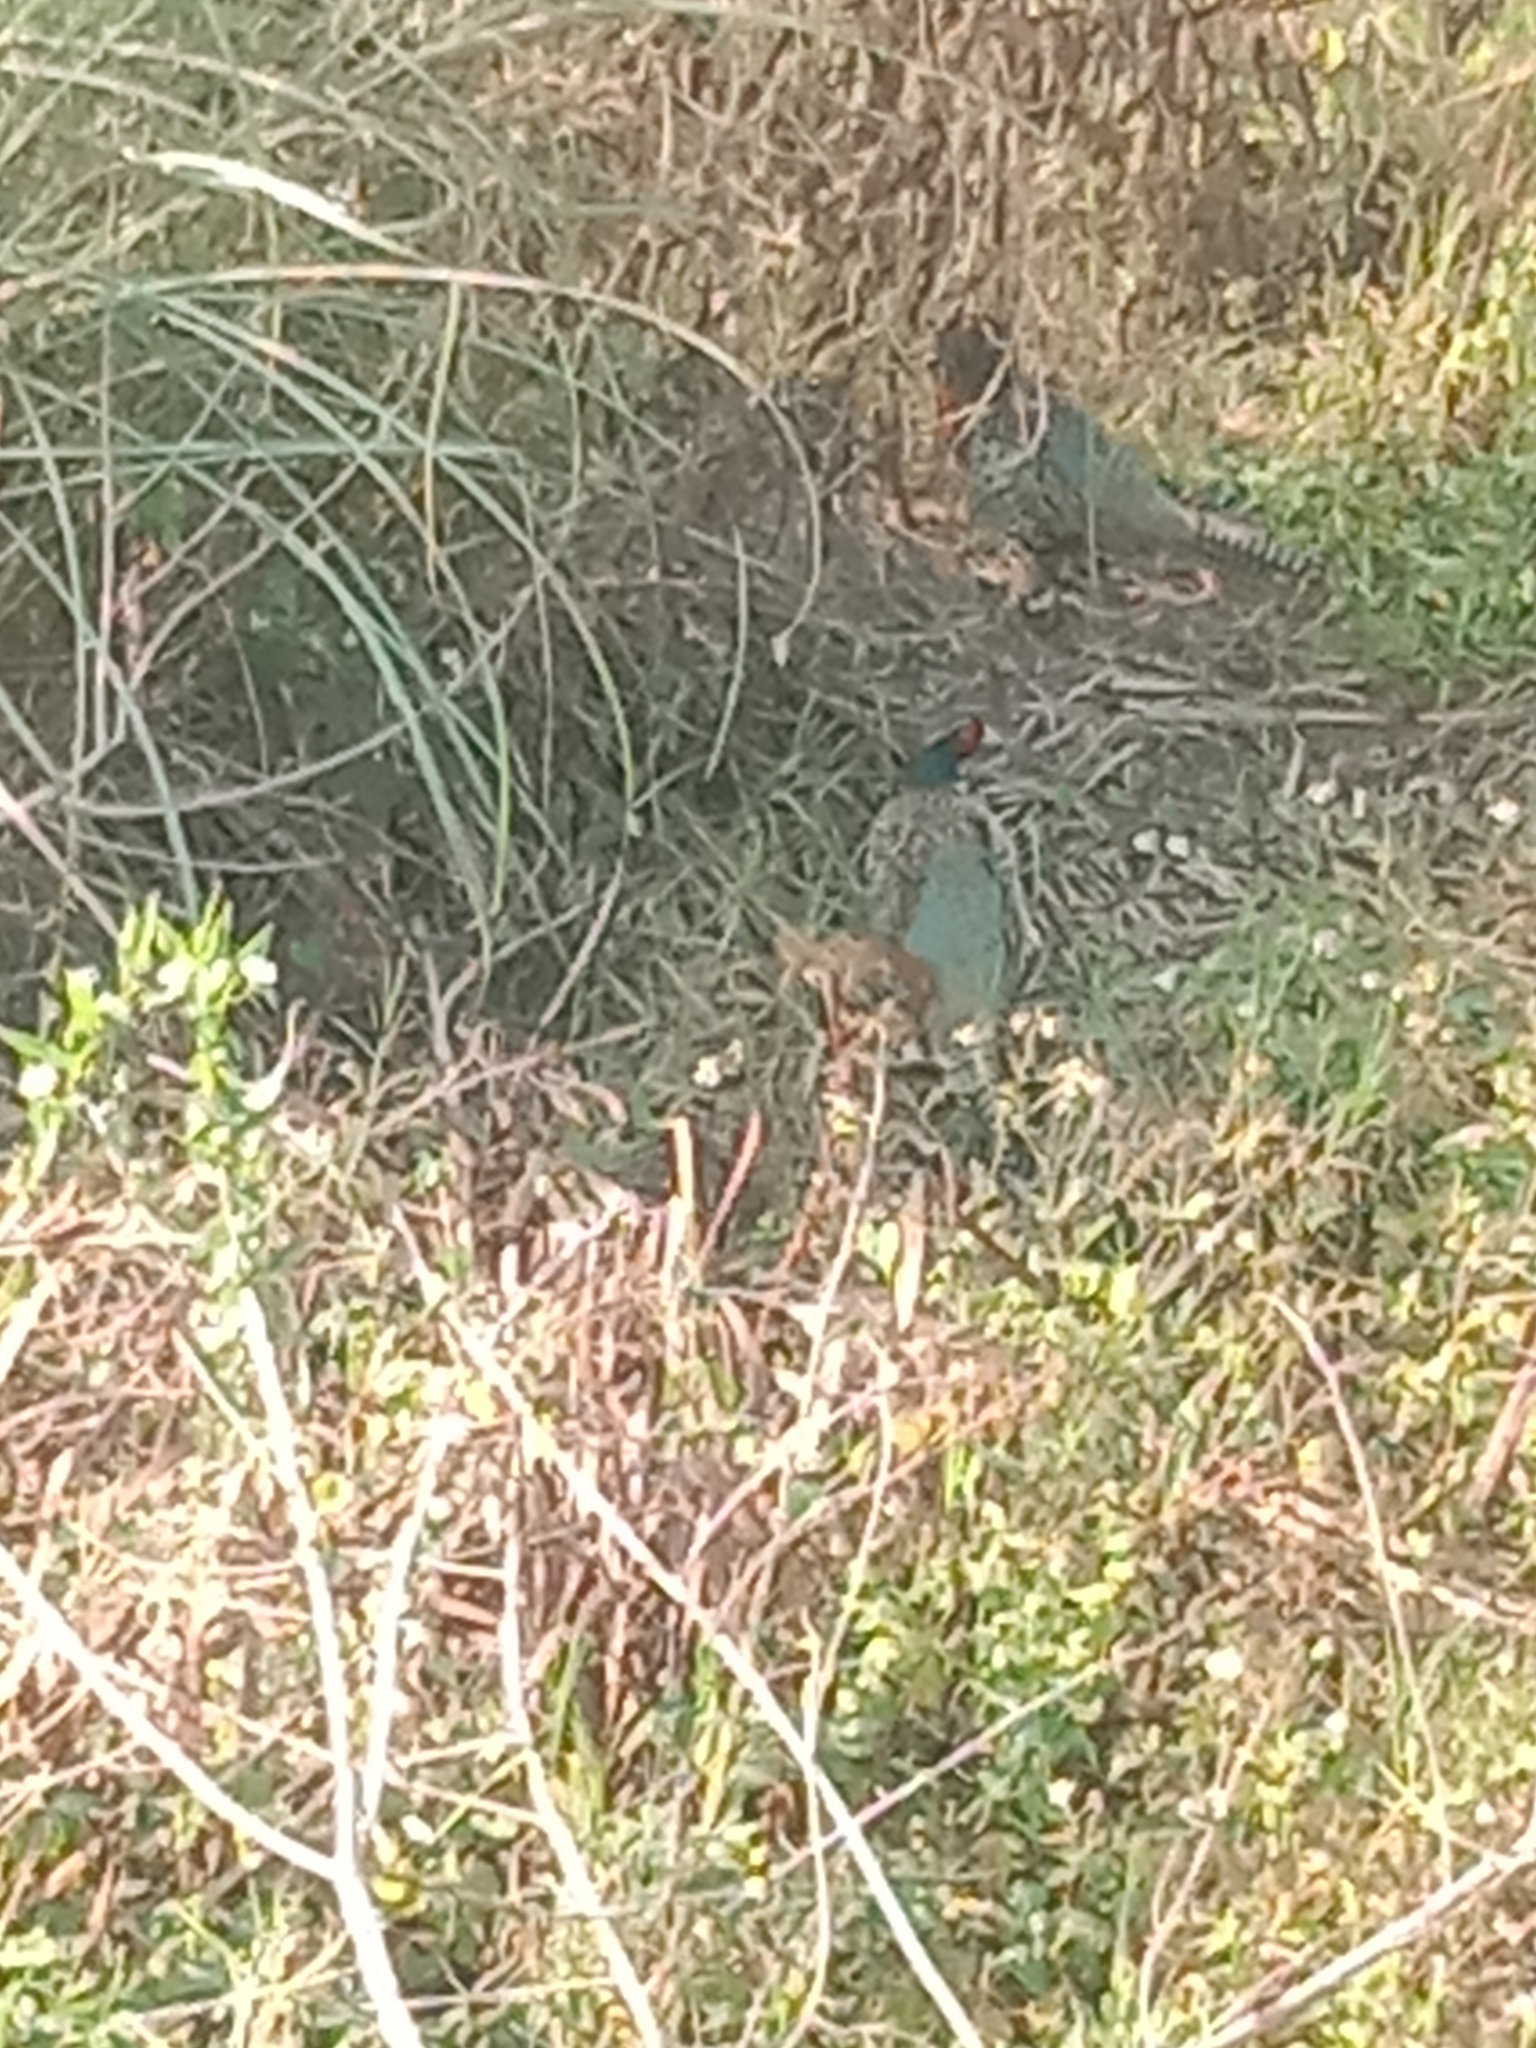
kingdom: Animalia
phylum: Chordata
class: Aves
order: Galliformes
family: Phasianidae
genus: Phasianus
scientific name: Phasianus colchicus
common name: Common pheasant
